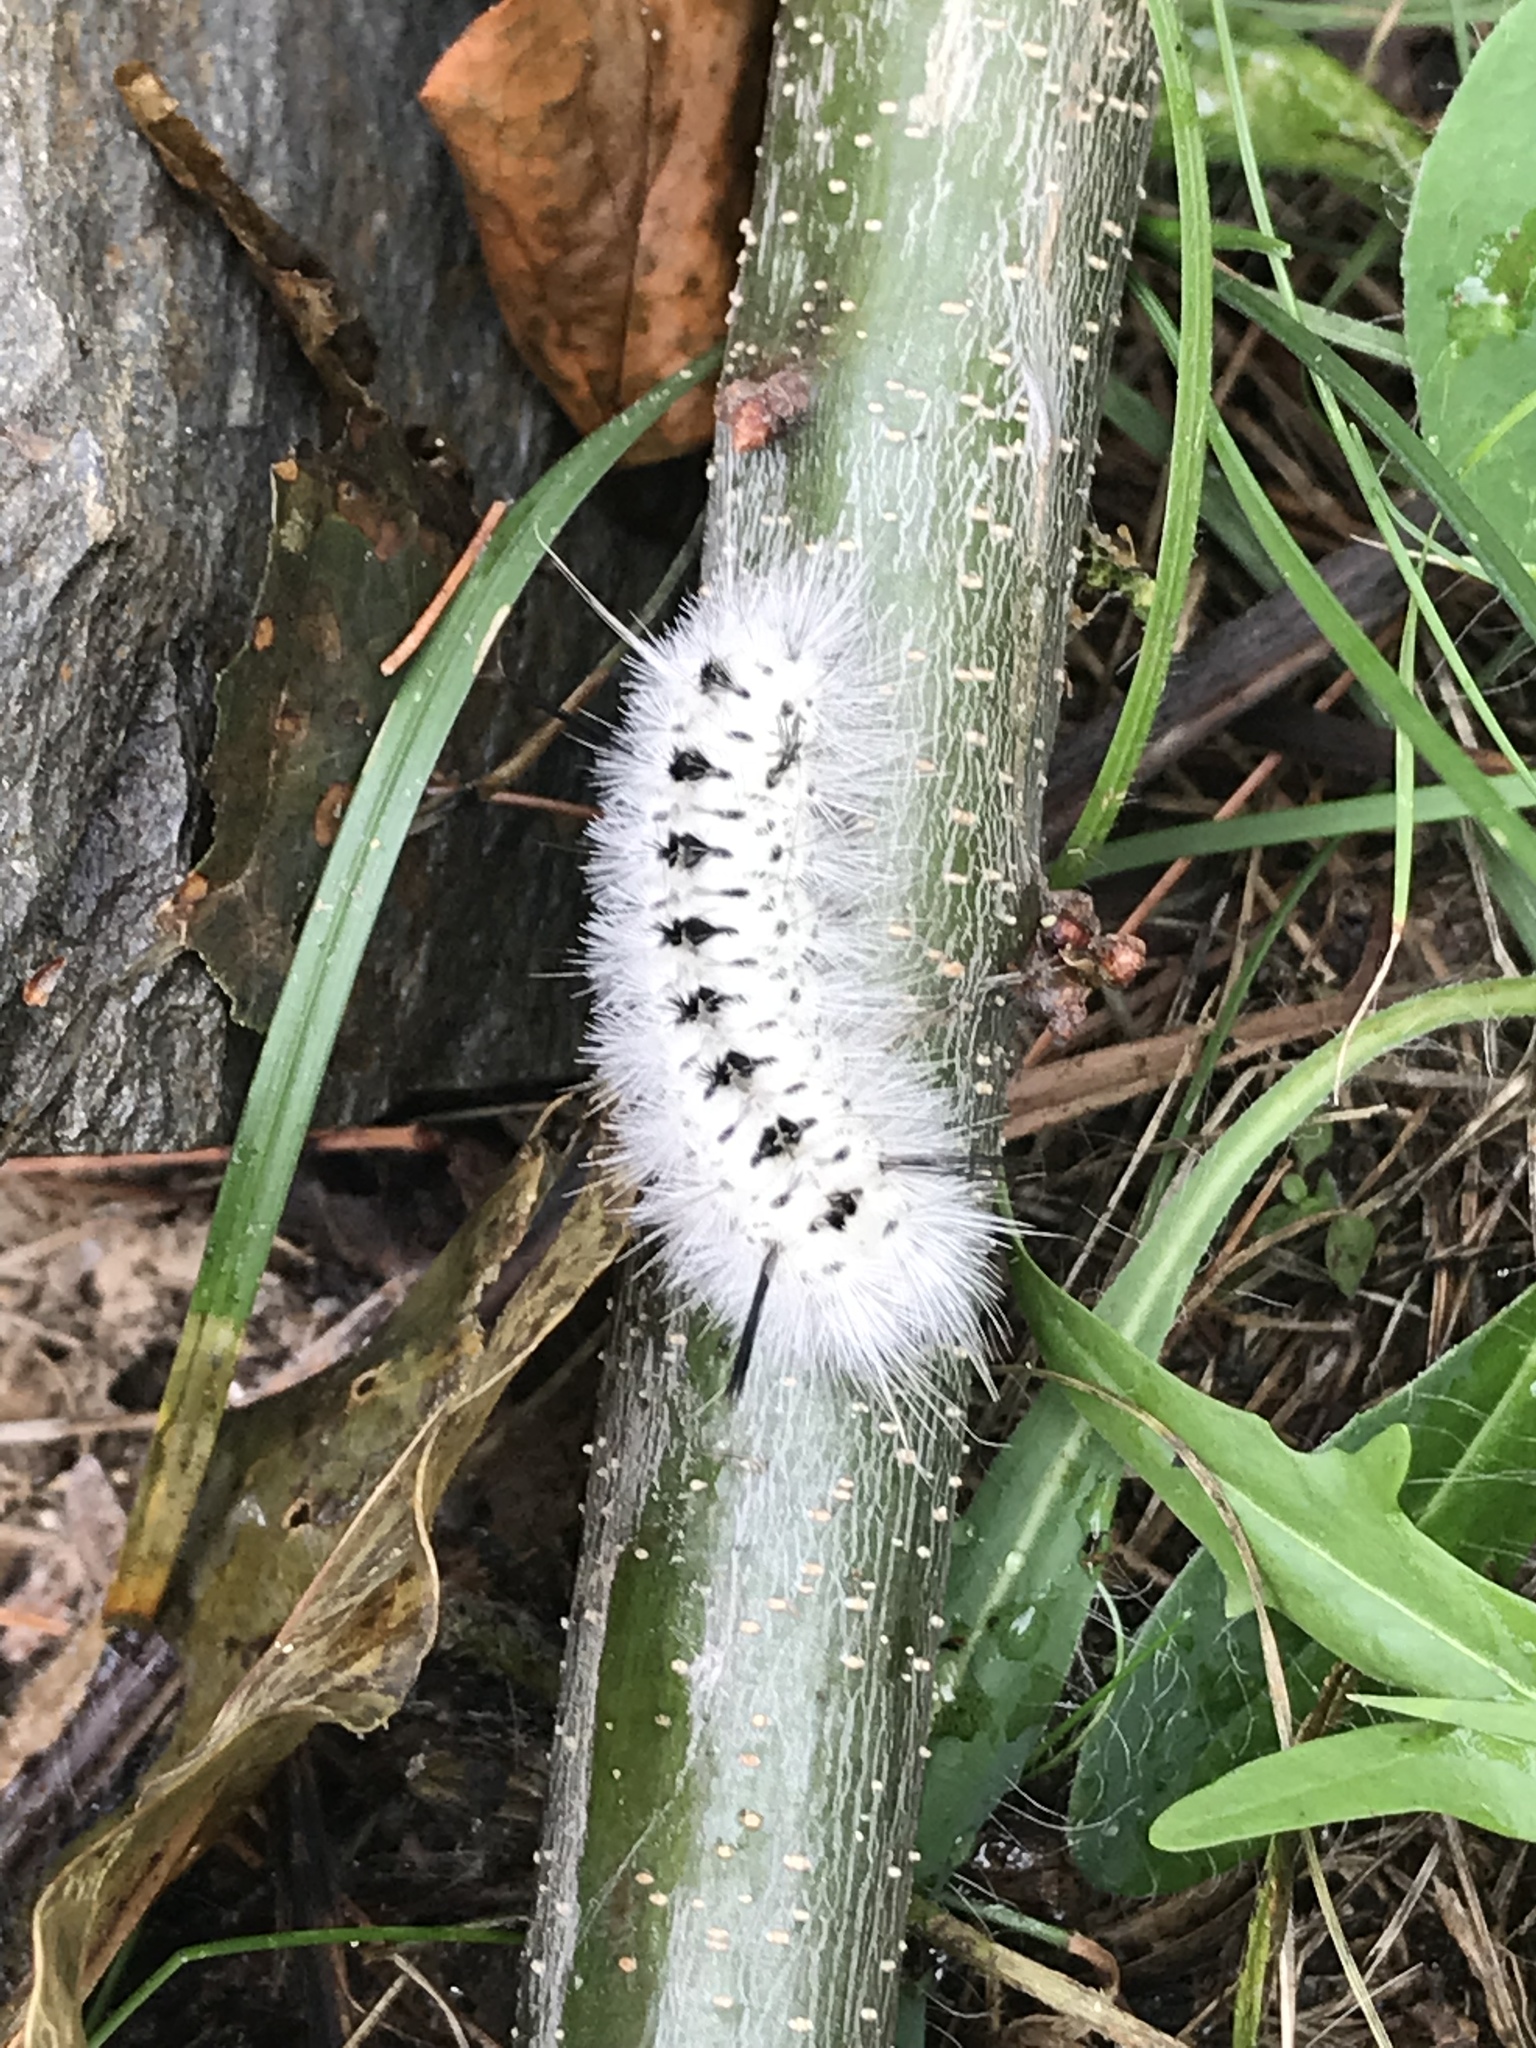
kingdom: Animalia
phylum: Arthropoda
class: Insecta
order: Lepidoptera
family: Erebidae
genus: Lophocampa
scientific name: Lophocampa caryae
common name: Hickory tussock moth
